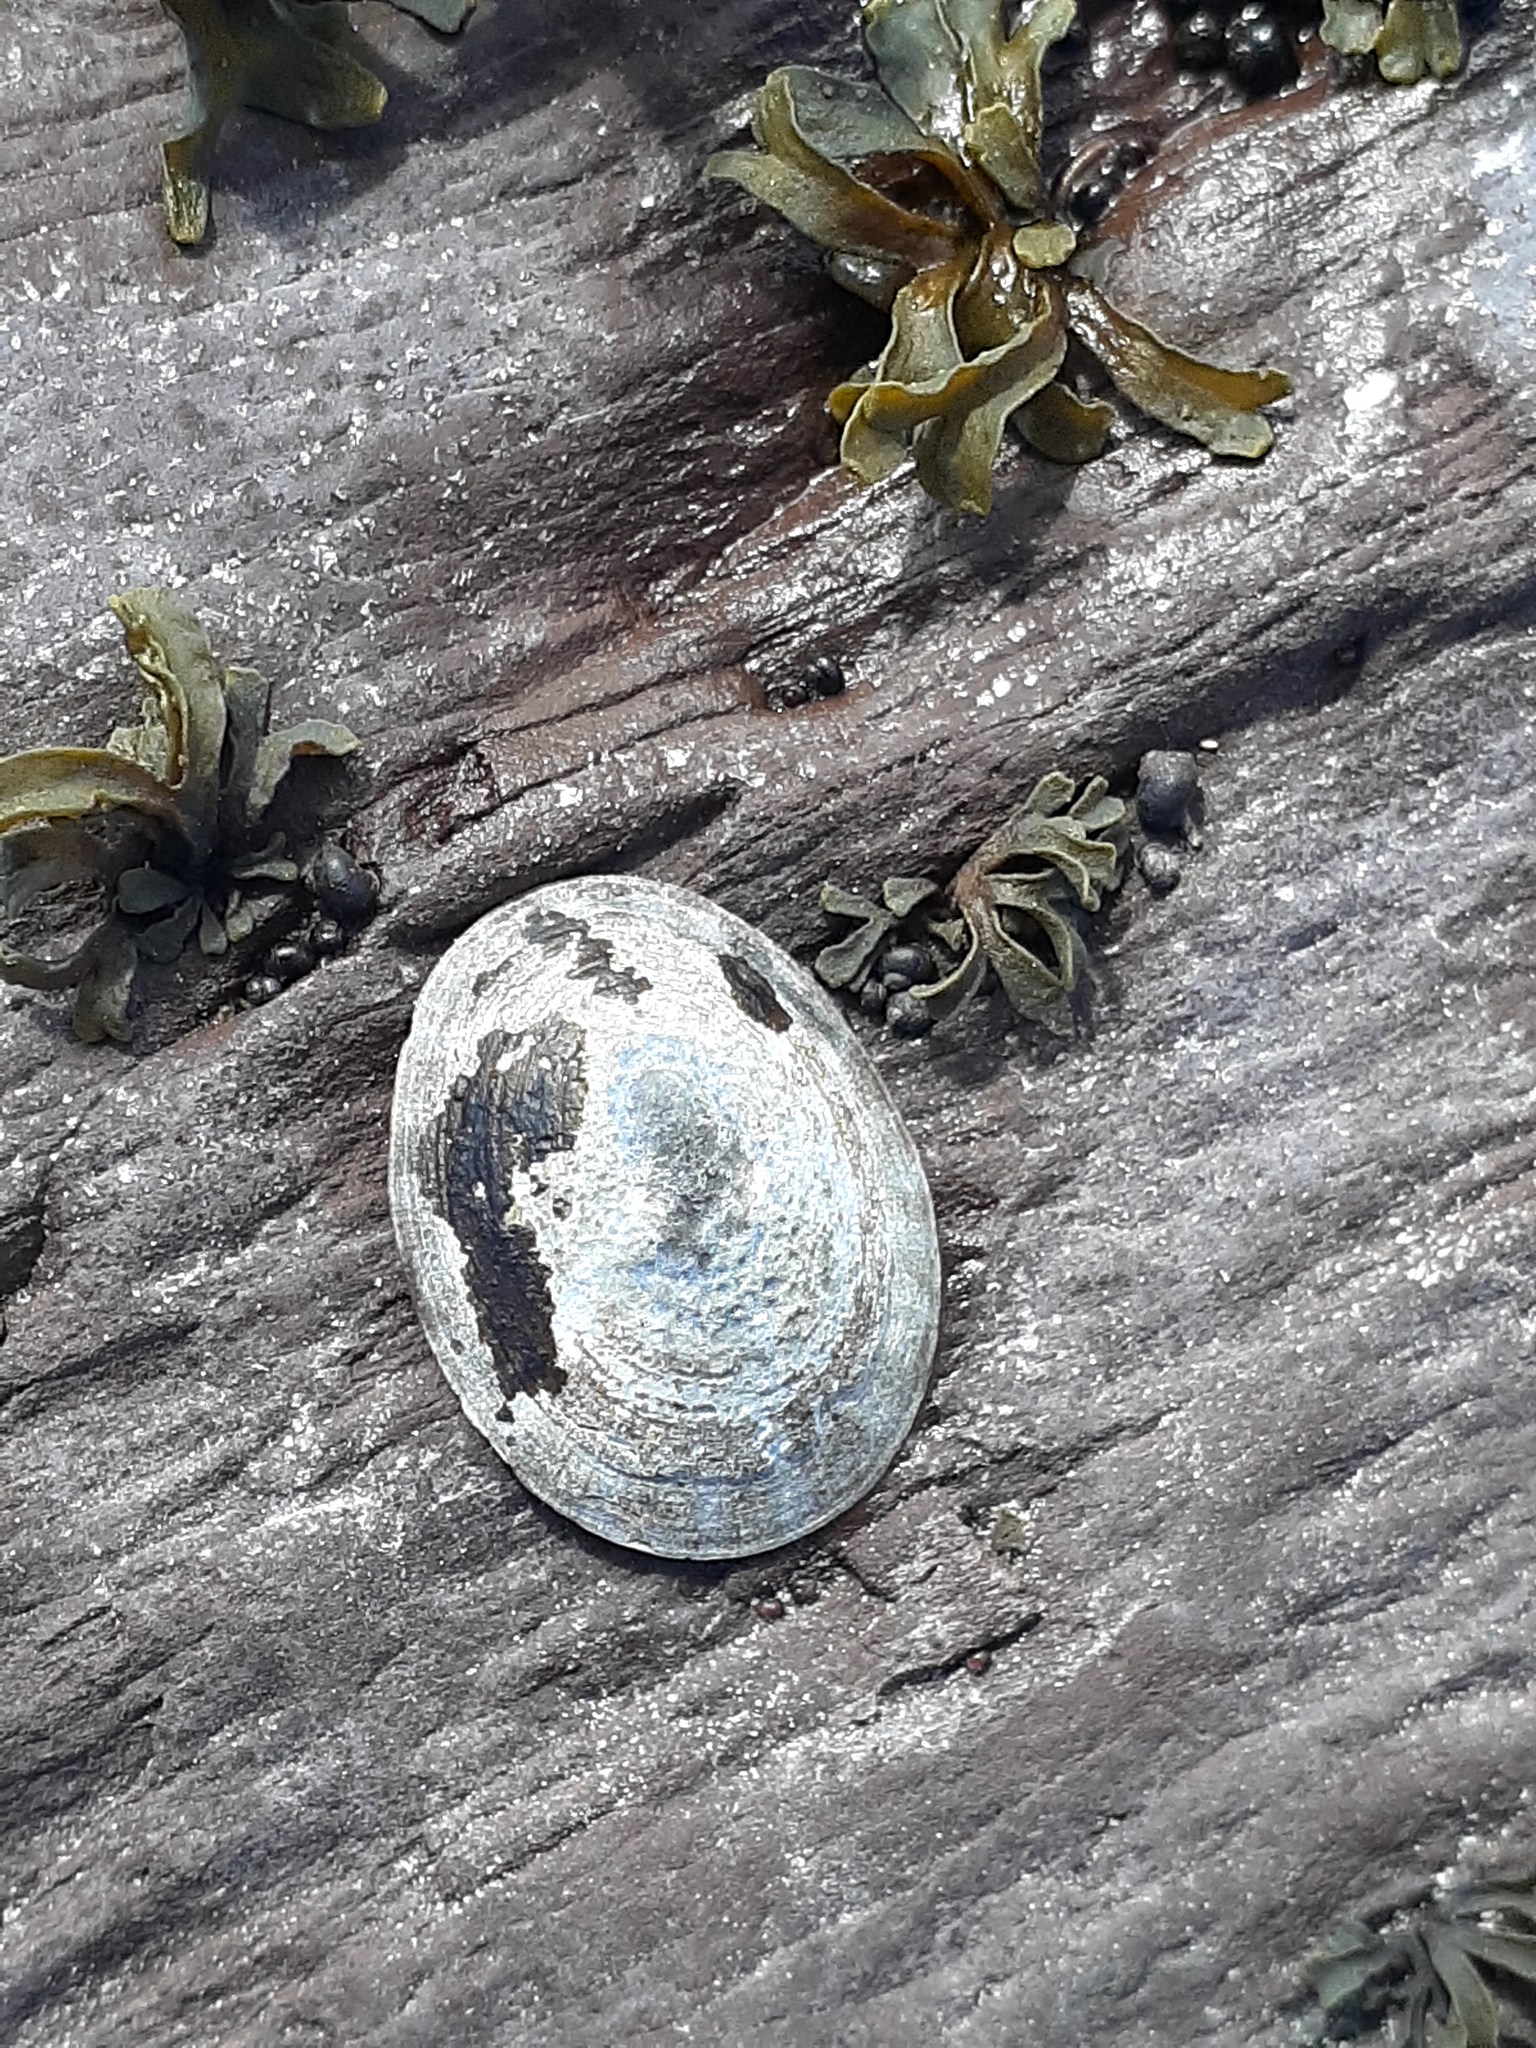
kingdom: Animalia
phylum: Mollusca
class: Gastropoda
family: Lottiidae
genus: Testudinalia
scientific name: Testudinalia testudinalis
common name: Common tortoiseshell limpet
